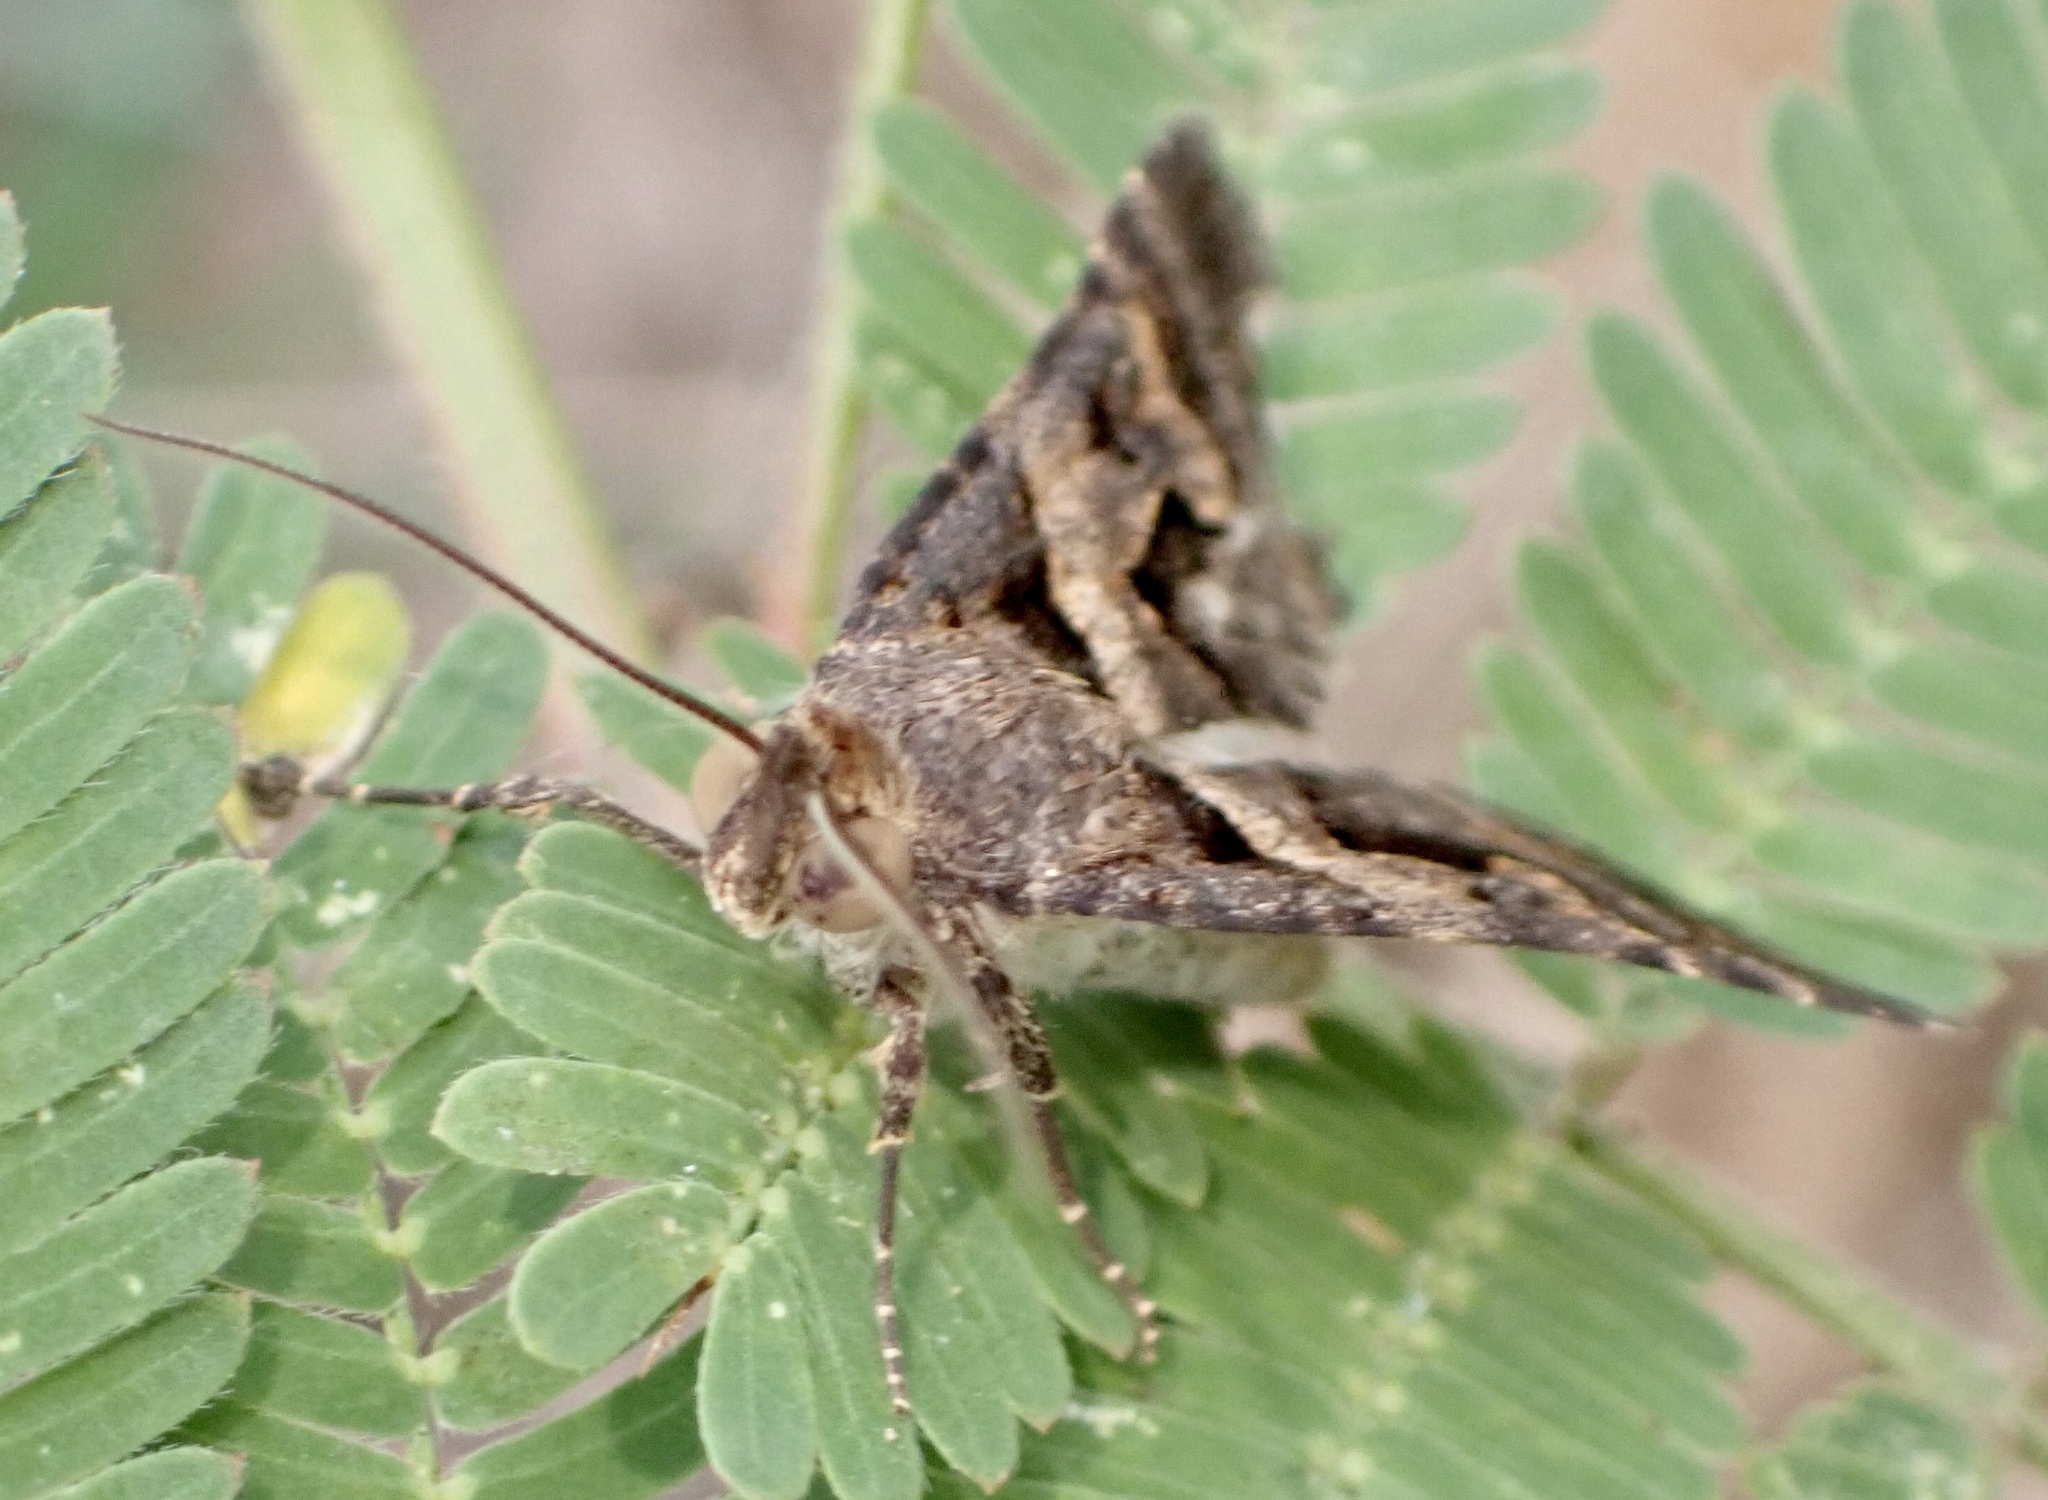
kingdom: Animalia
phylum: Arthropoda
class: Insecta
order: Lepidoptera
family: Erebidae
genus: Bulia
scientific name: Bulia brunnearis
